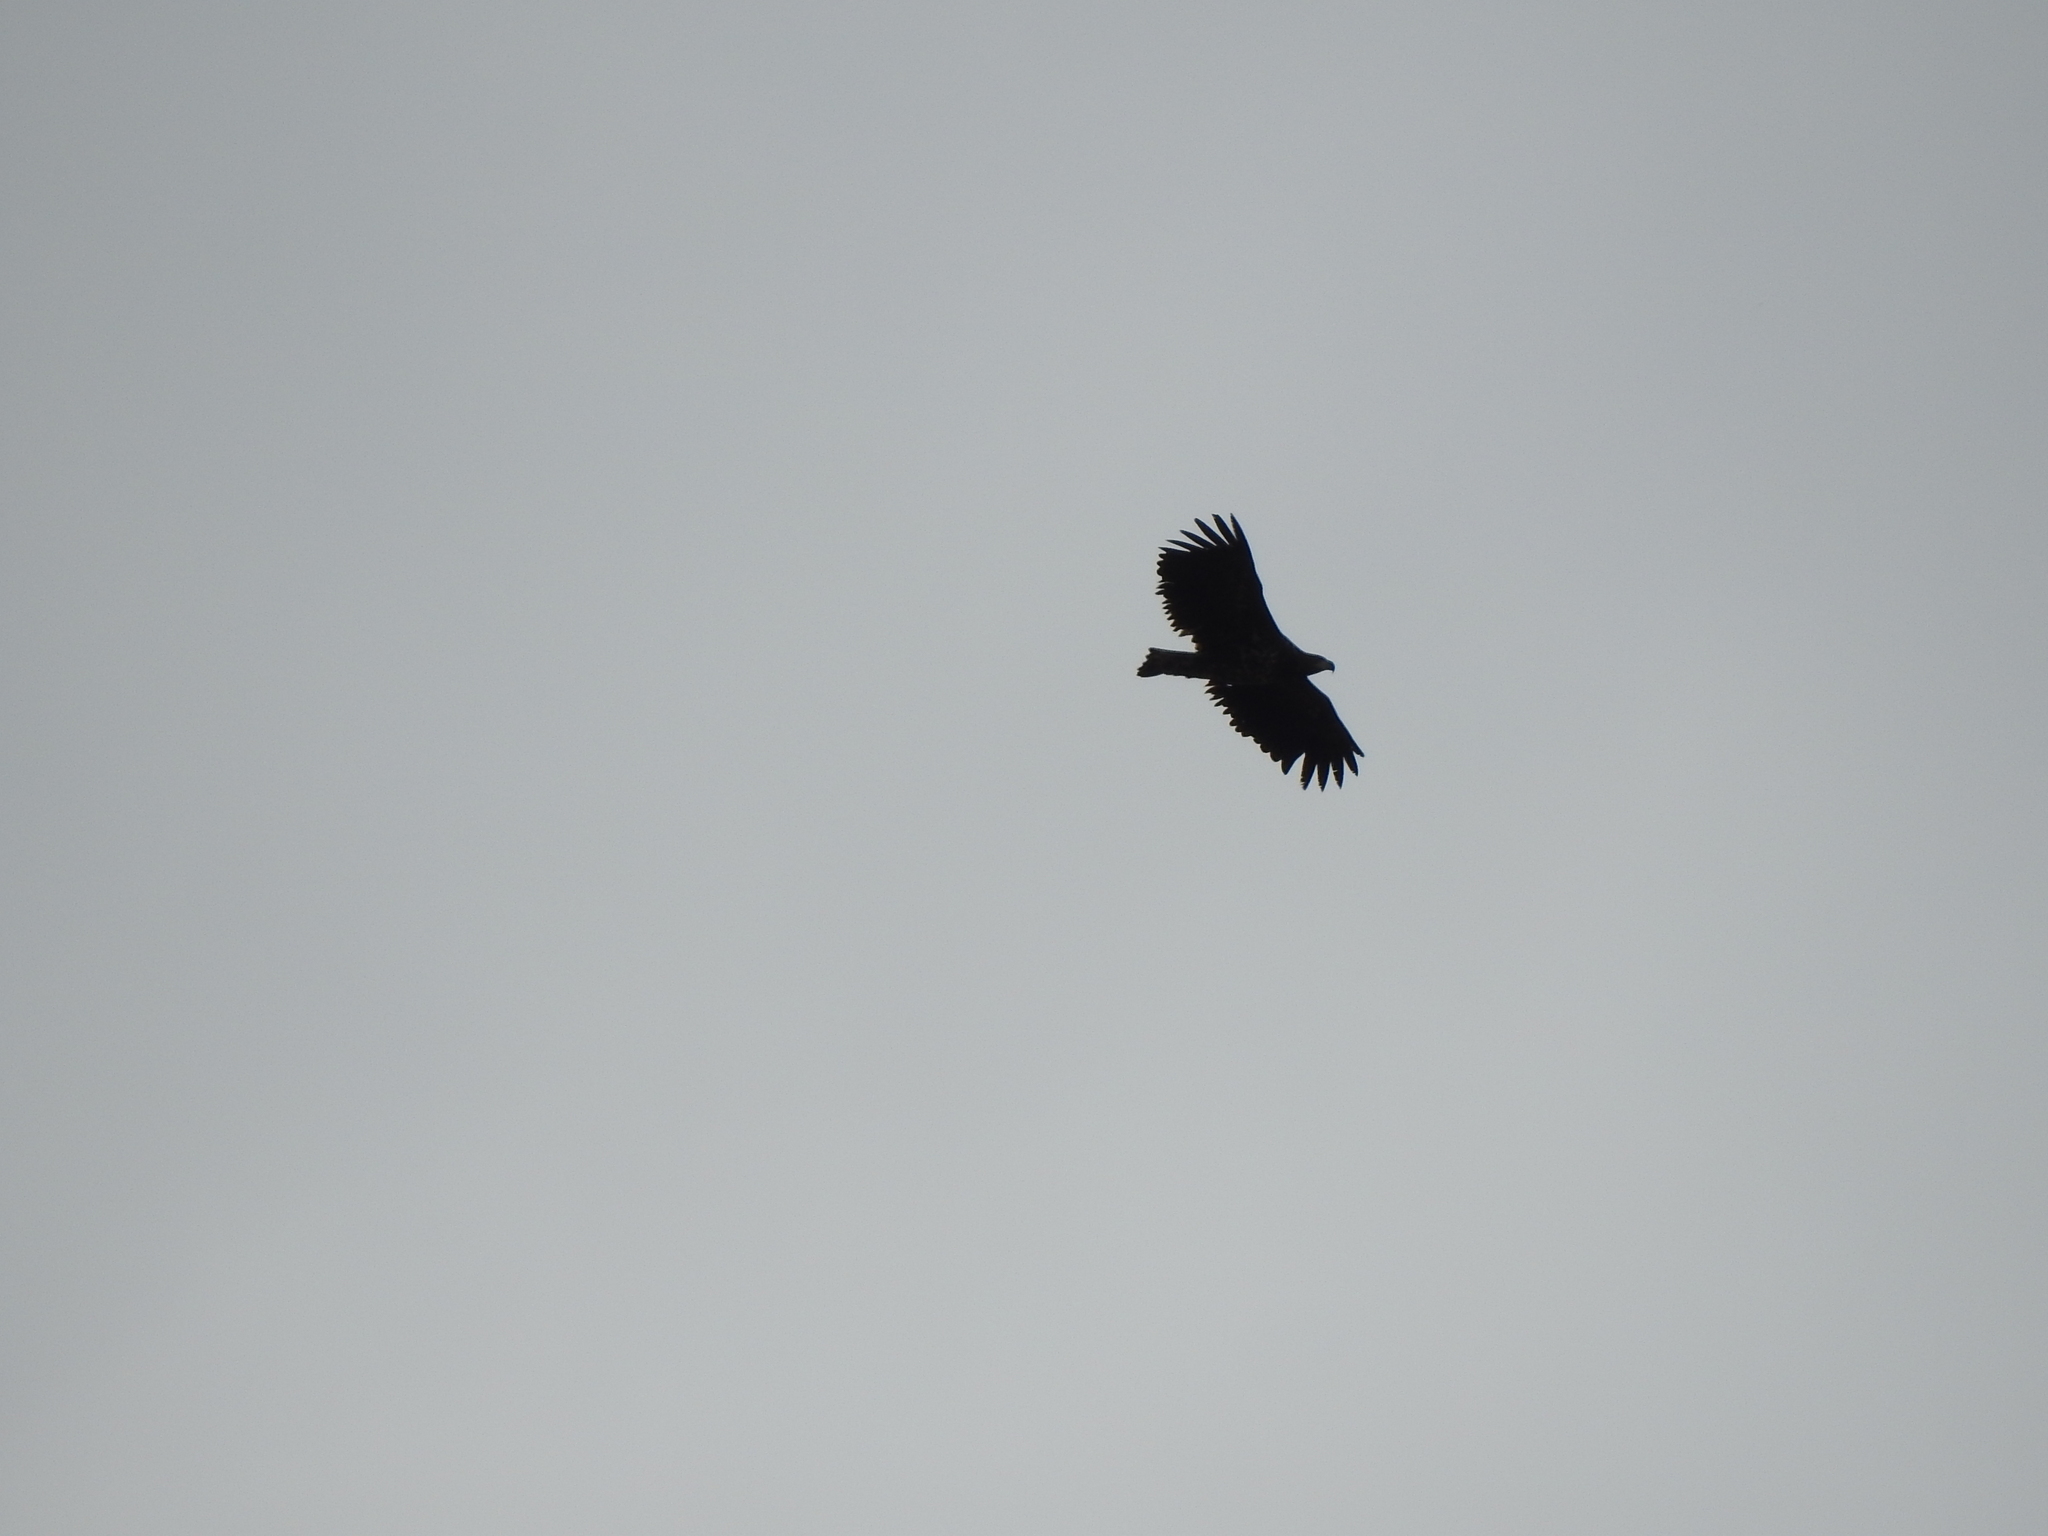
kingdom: Animalia
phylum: Chordata
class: Aves
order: Accipitriformes
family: Accipitridae
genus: Haliaeetus
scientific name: Haliaeetus albicilla
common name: White-tailed eagle
